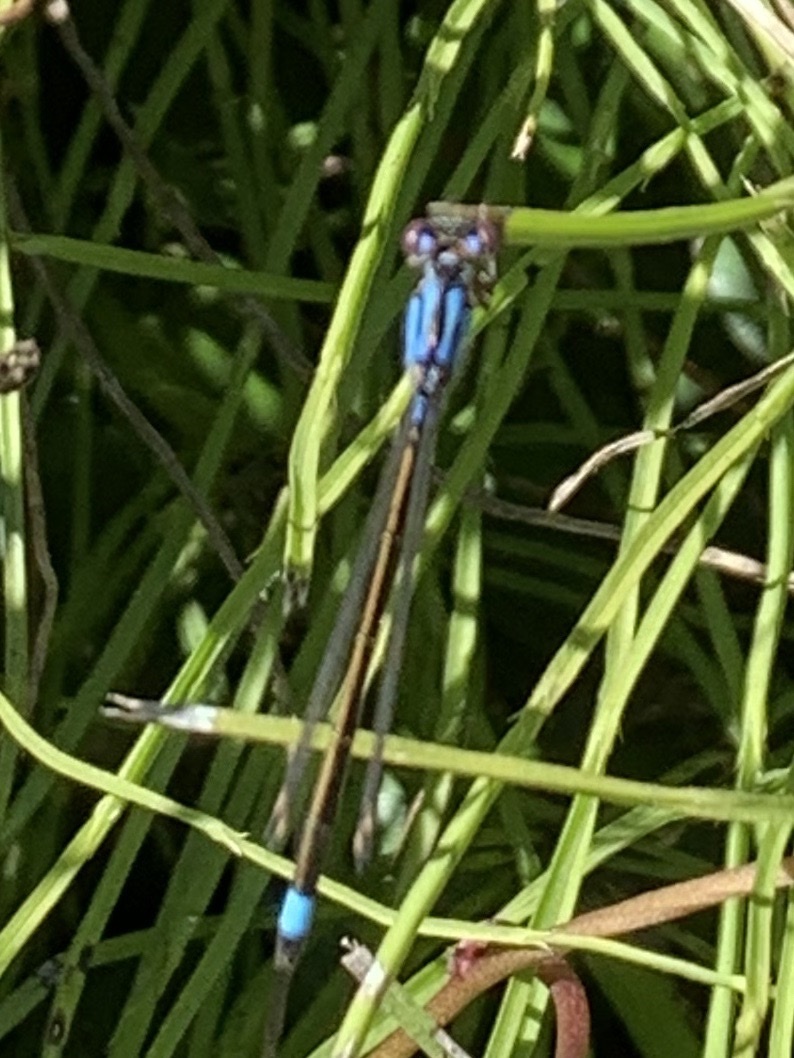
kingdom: Animalia
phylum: Arthropoda
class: Insecta
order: Odonata
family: Coenagrionidae
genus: Ischnura
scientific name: Ischnura cervula
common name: Pacific forktail
